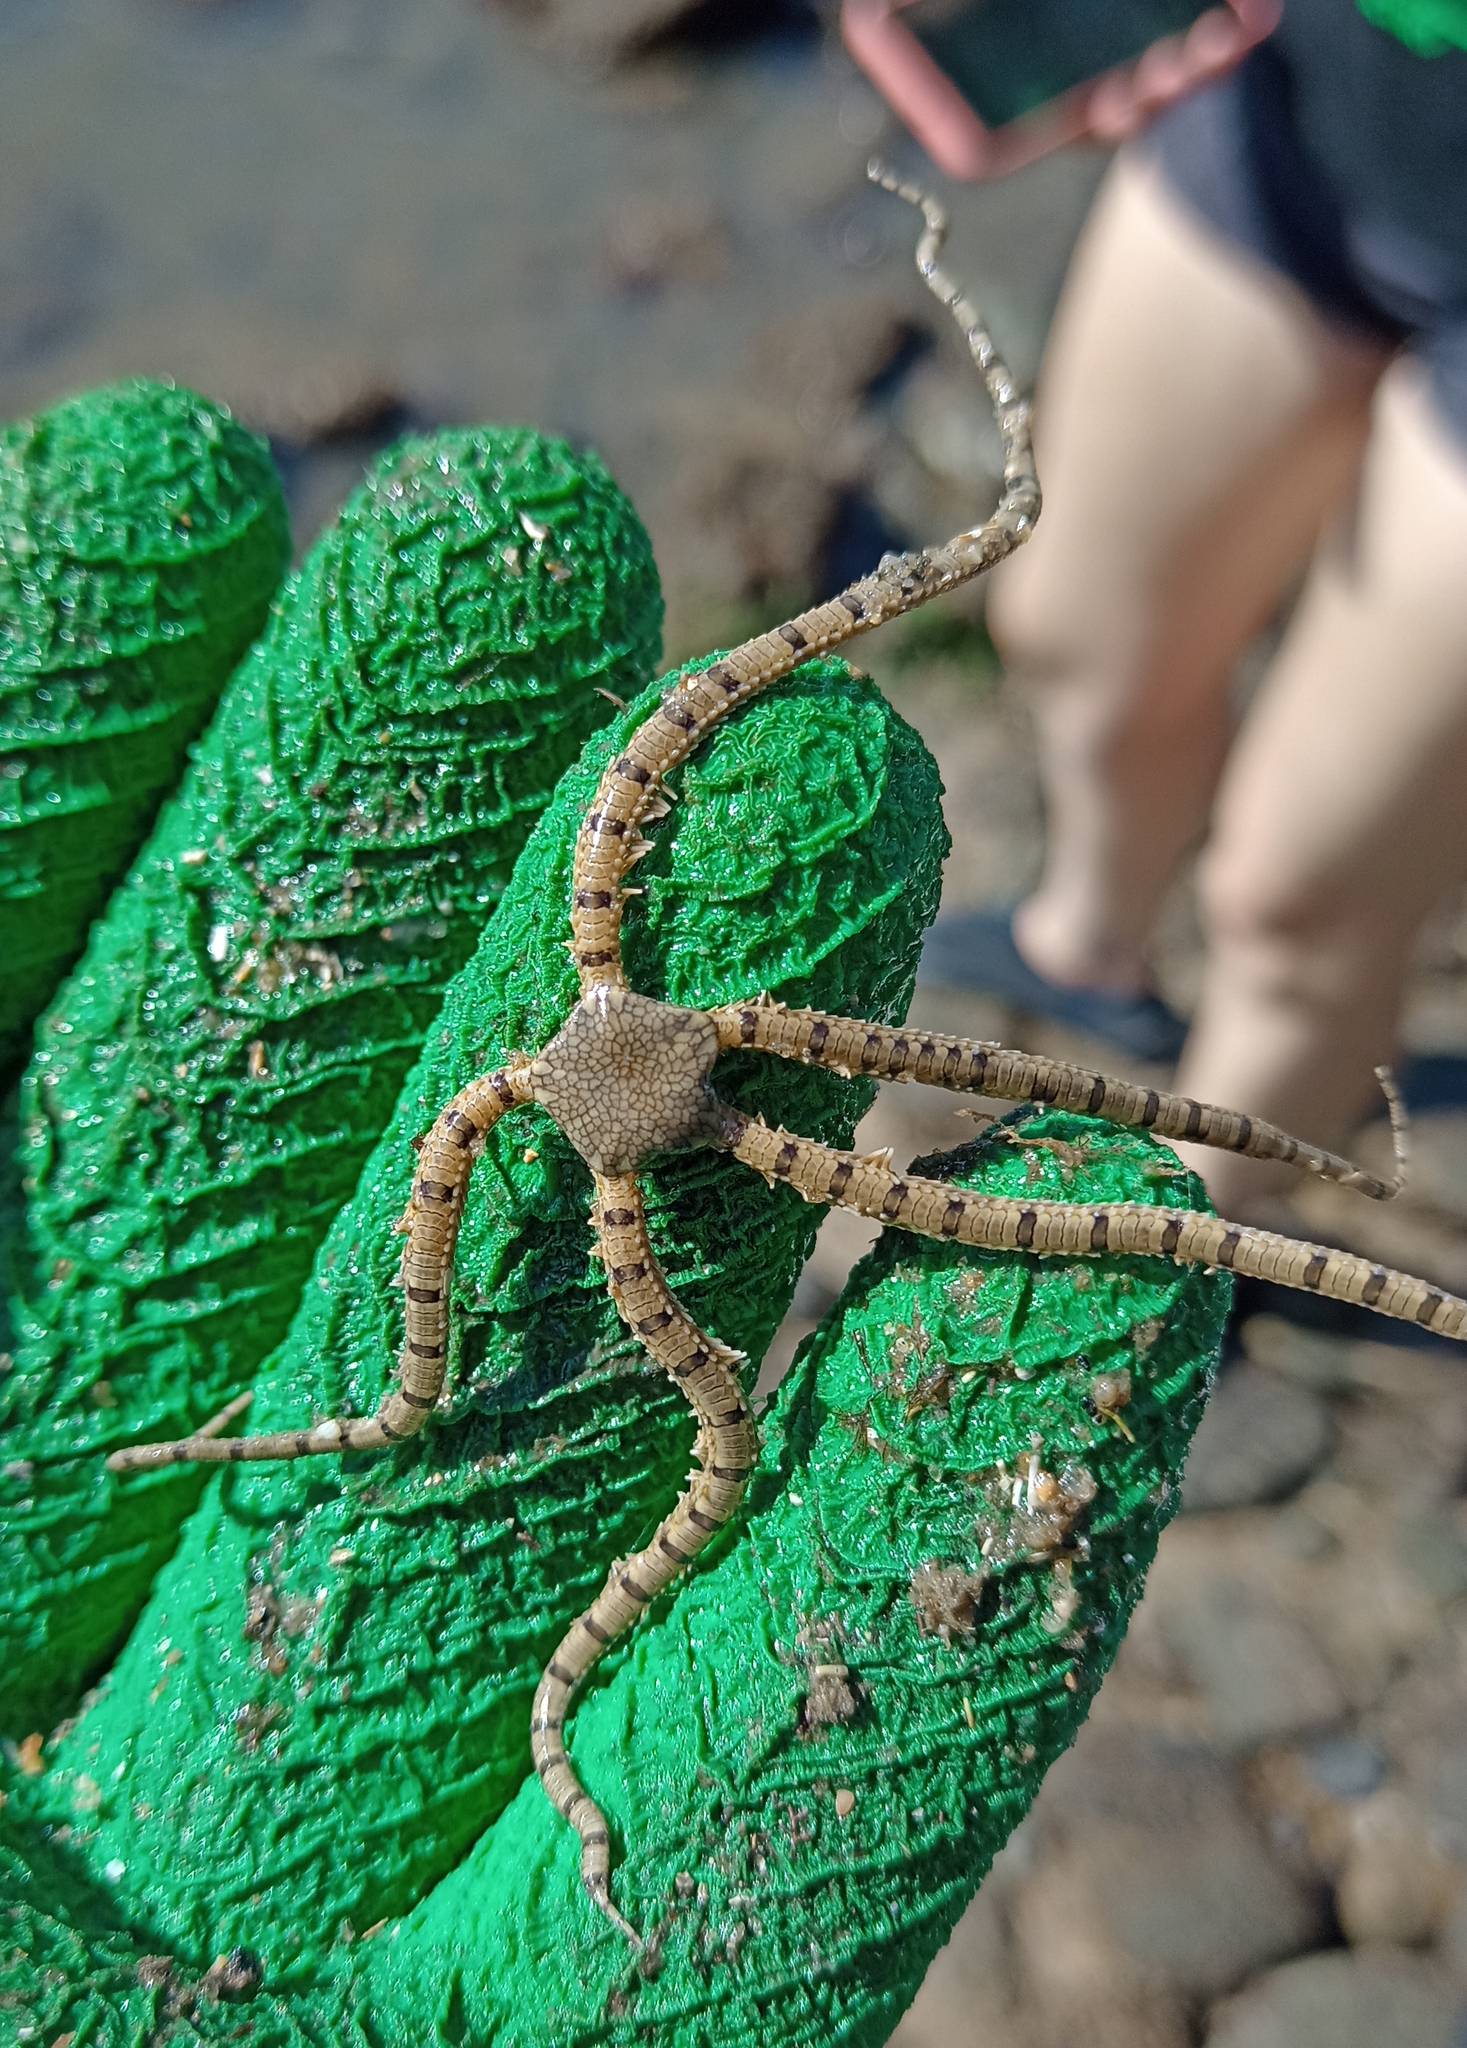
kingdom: Animalia
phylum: Echinodermata
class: Ophiuroidea
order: Amphilepidida
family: Ophionereididae
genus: Ophionereis
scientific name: Ophionereis reticulata
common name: Reticulate brittle star
